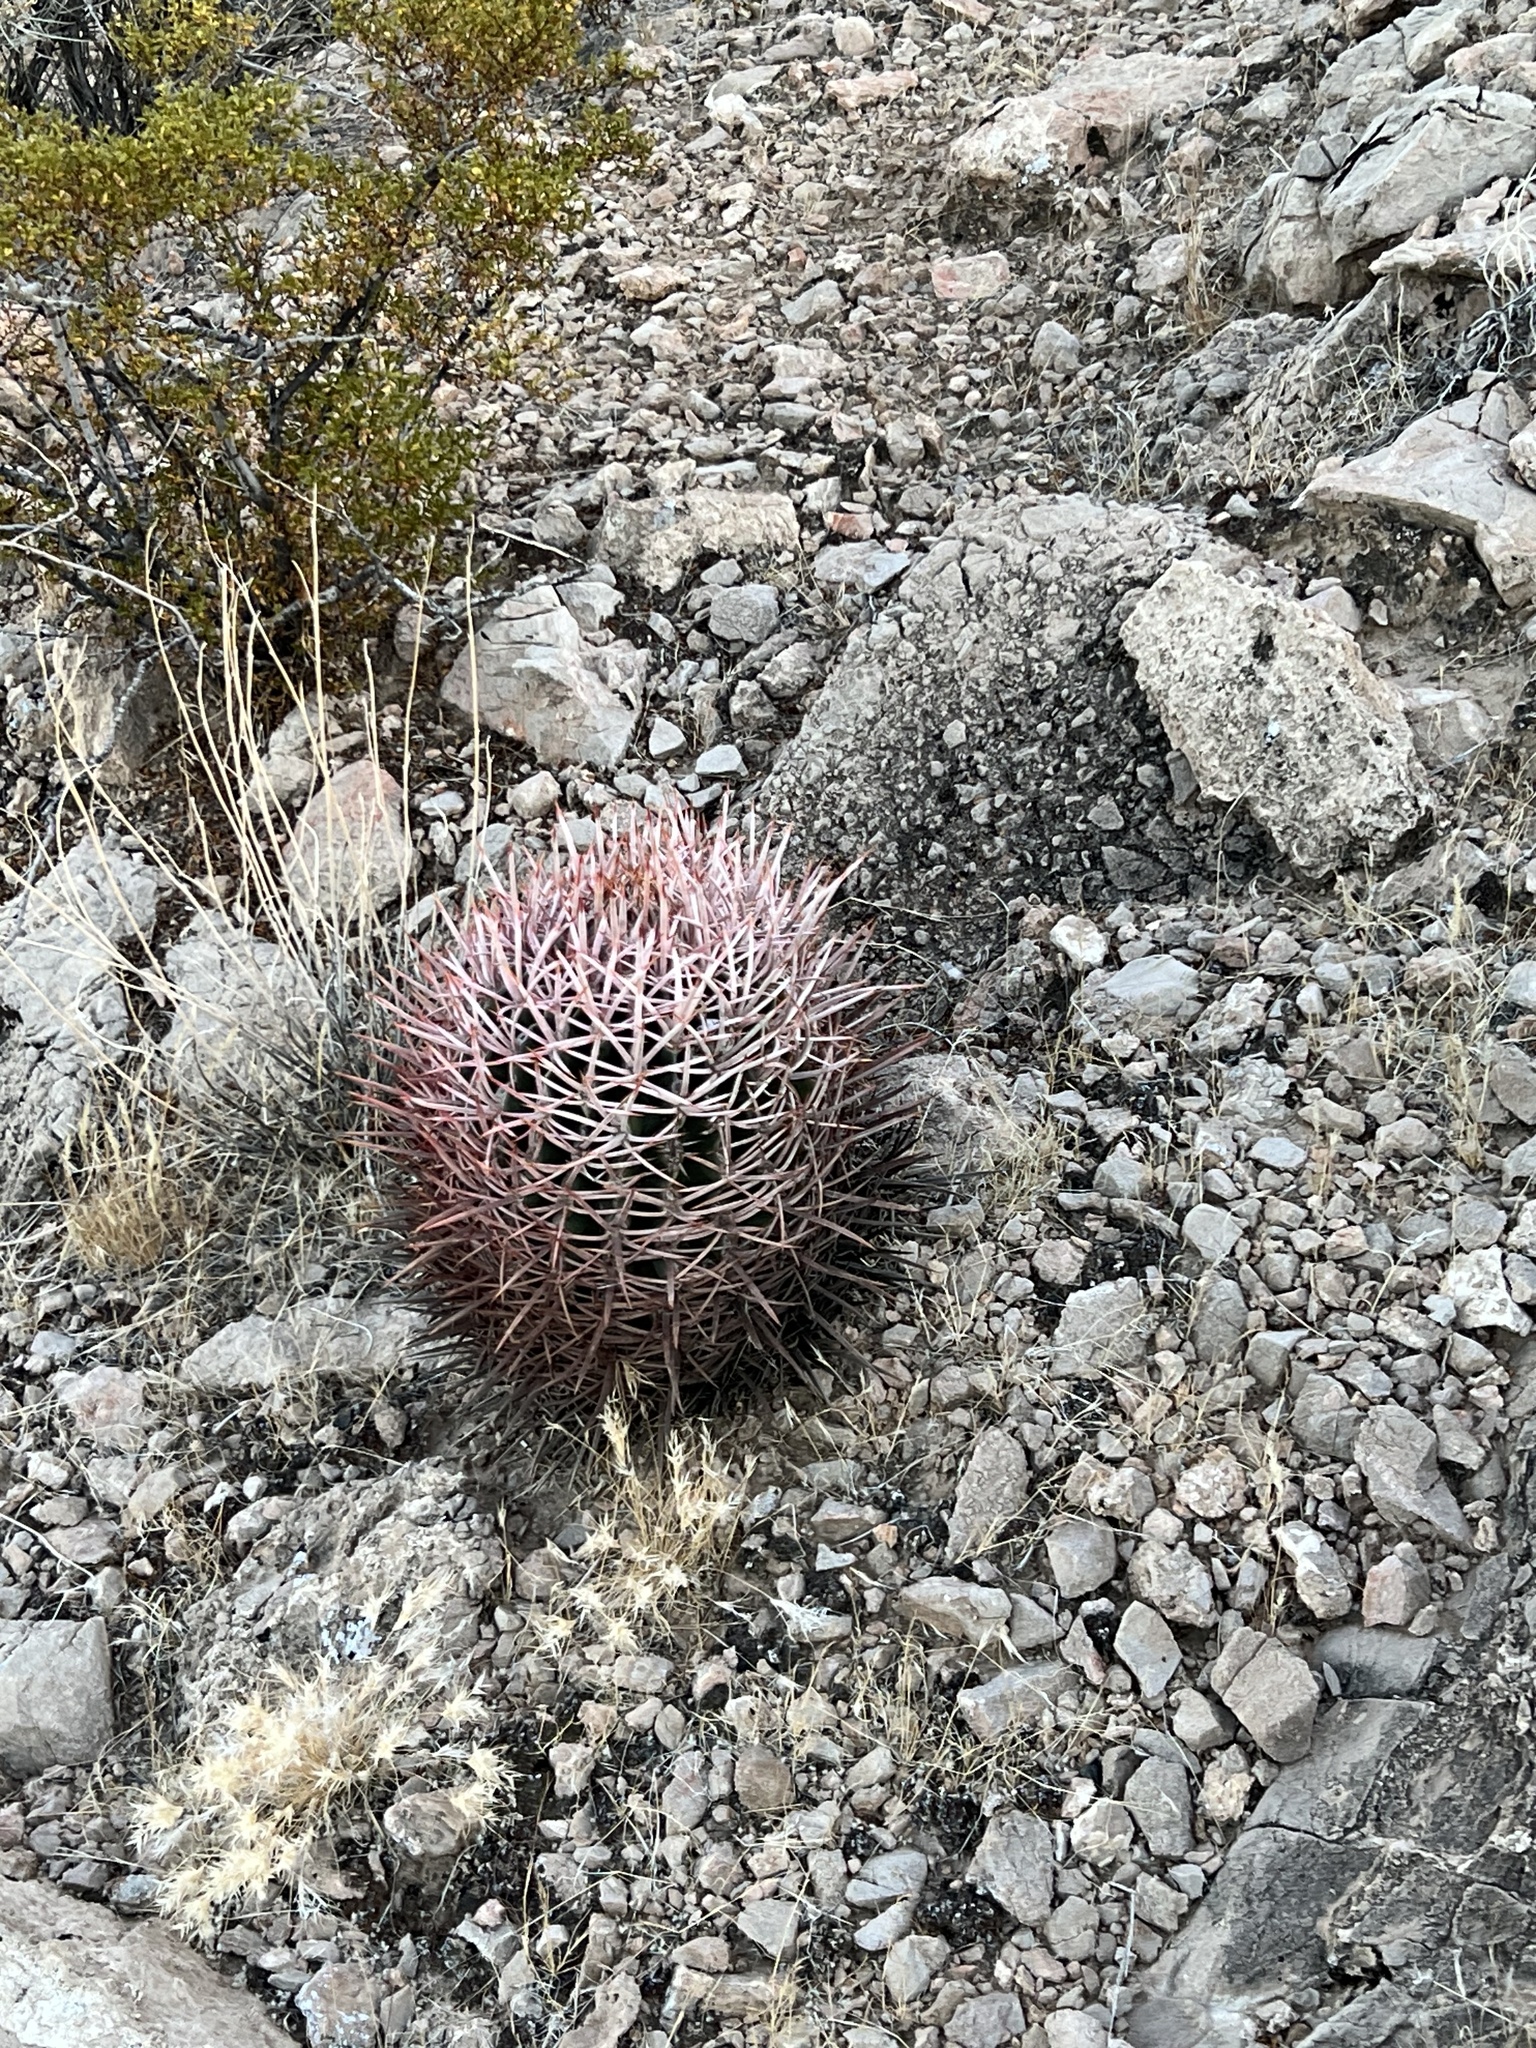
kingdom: Plantae
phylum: Tracheophyta
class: Magnoliopsida
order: Caryophyllales
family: Cactaceae
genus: Echinocactus
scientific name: Echinocactus polycephalus
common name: Cottontop cactus
